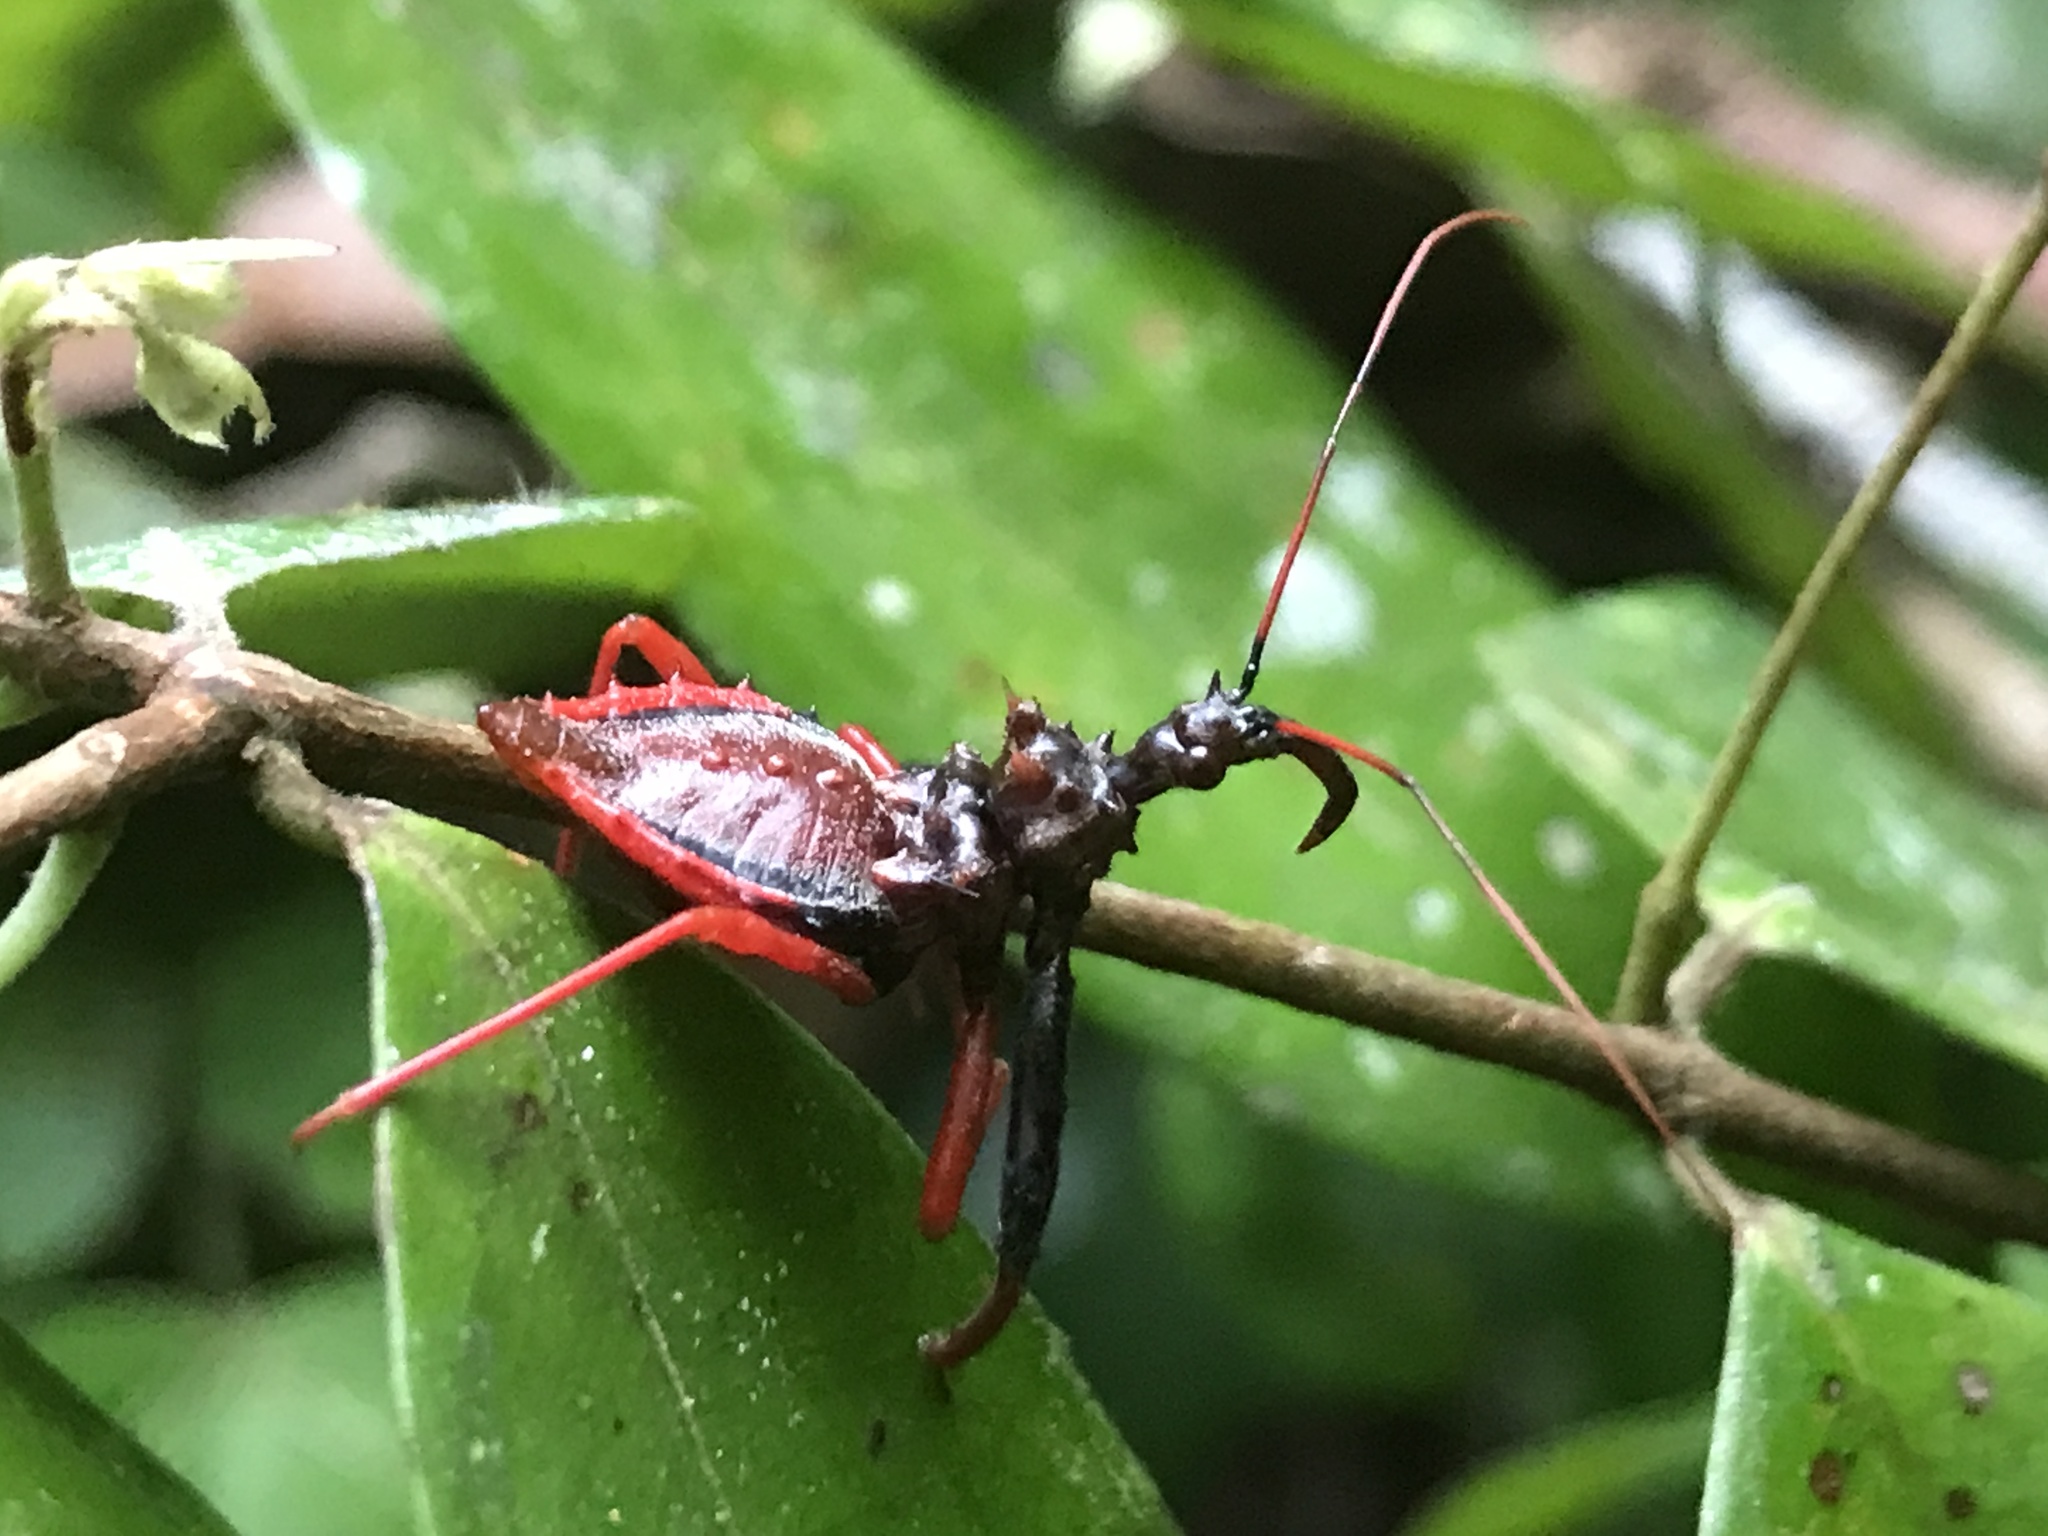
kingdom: Animalia
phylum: Arthropoda
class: Insecta
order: Hemiptera
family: Reduviidae
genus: Erbessus
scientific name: Erbessus rufiventris
